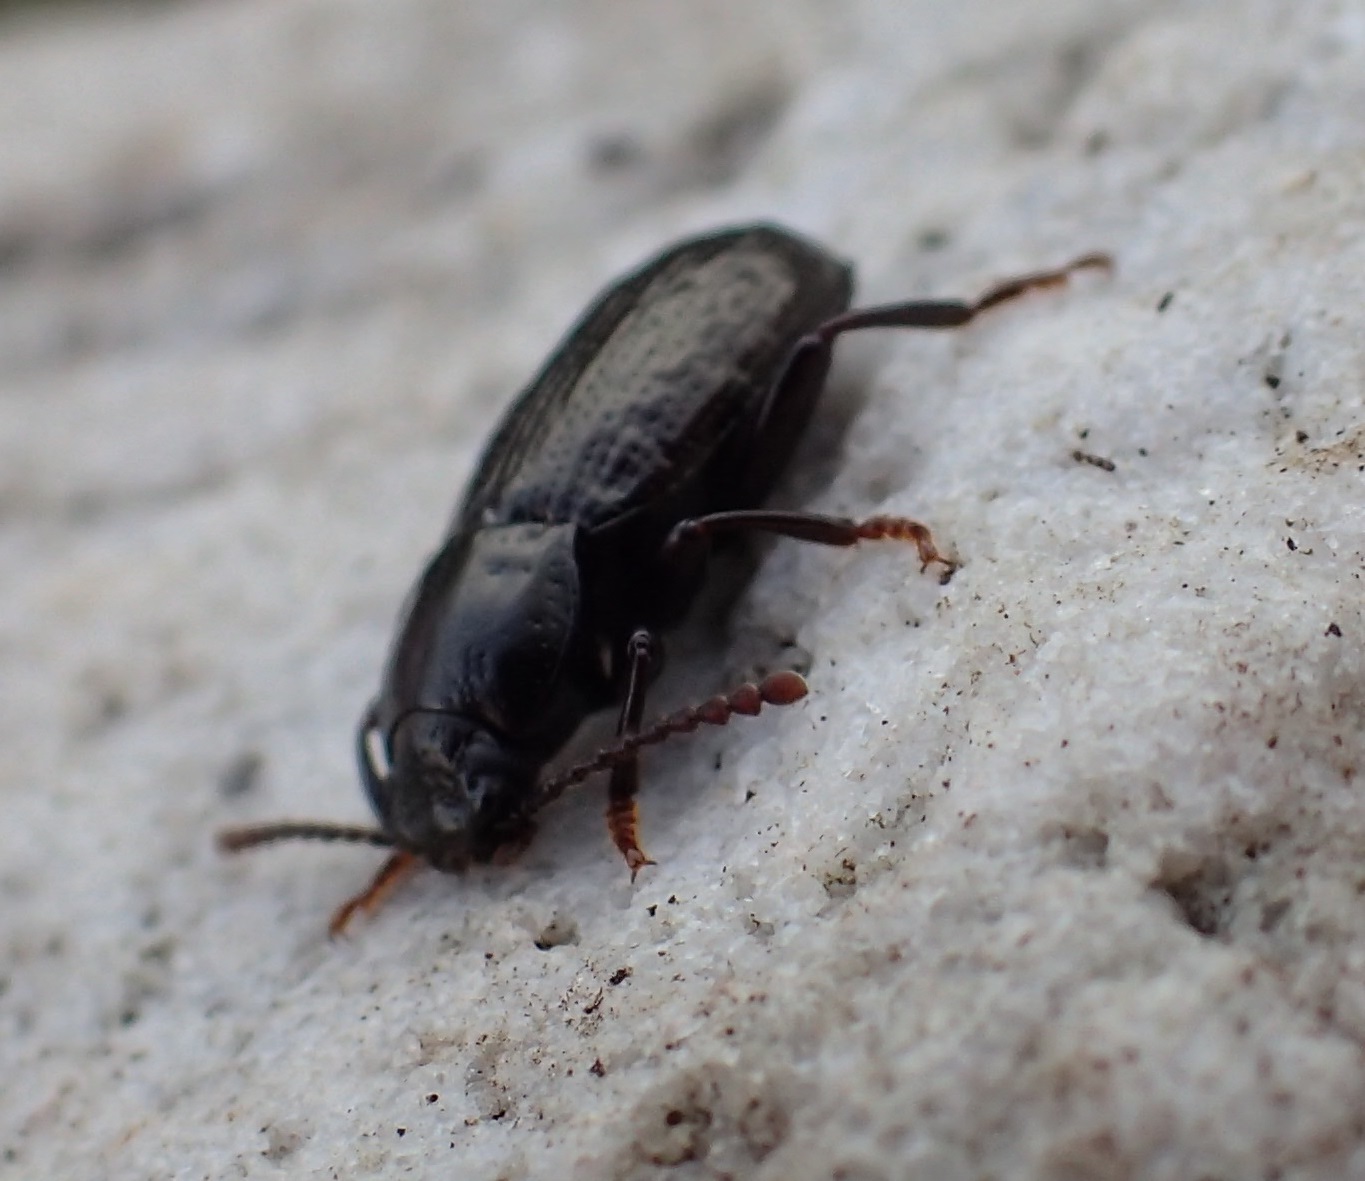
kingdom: Animalia
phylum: Arthropoda
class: Insecta
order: Coleoptera
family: Tenebrionidae
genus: Seirotrana
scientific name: Seirotrana
